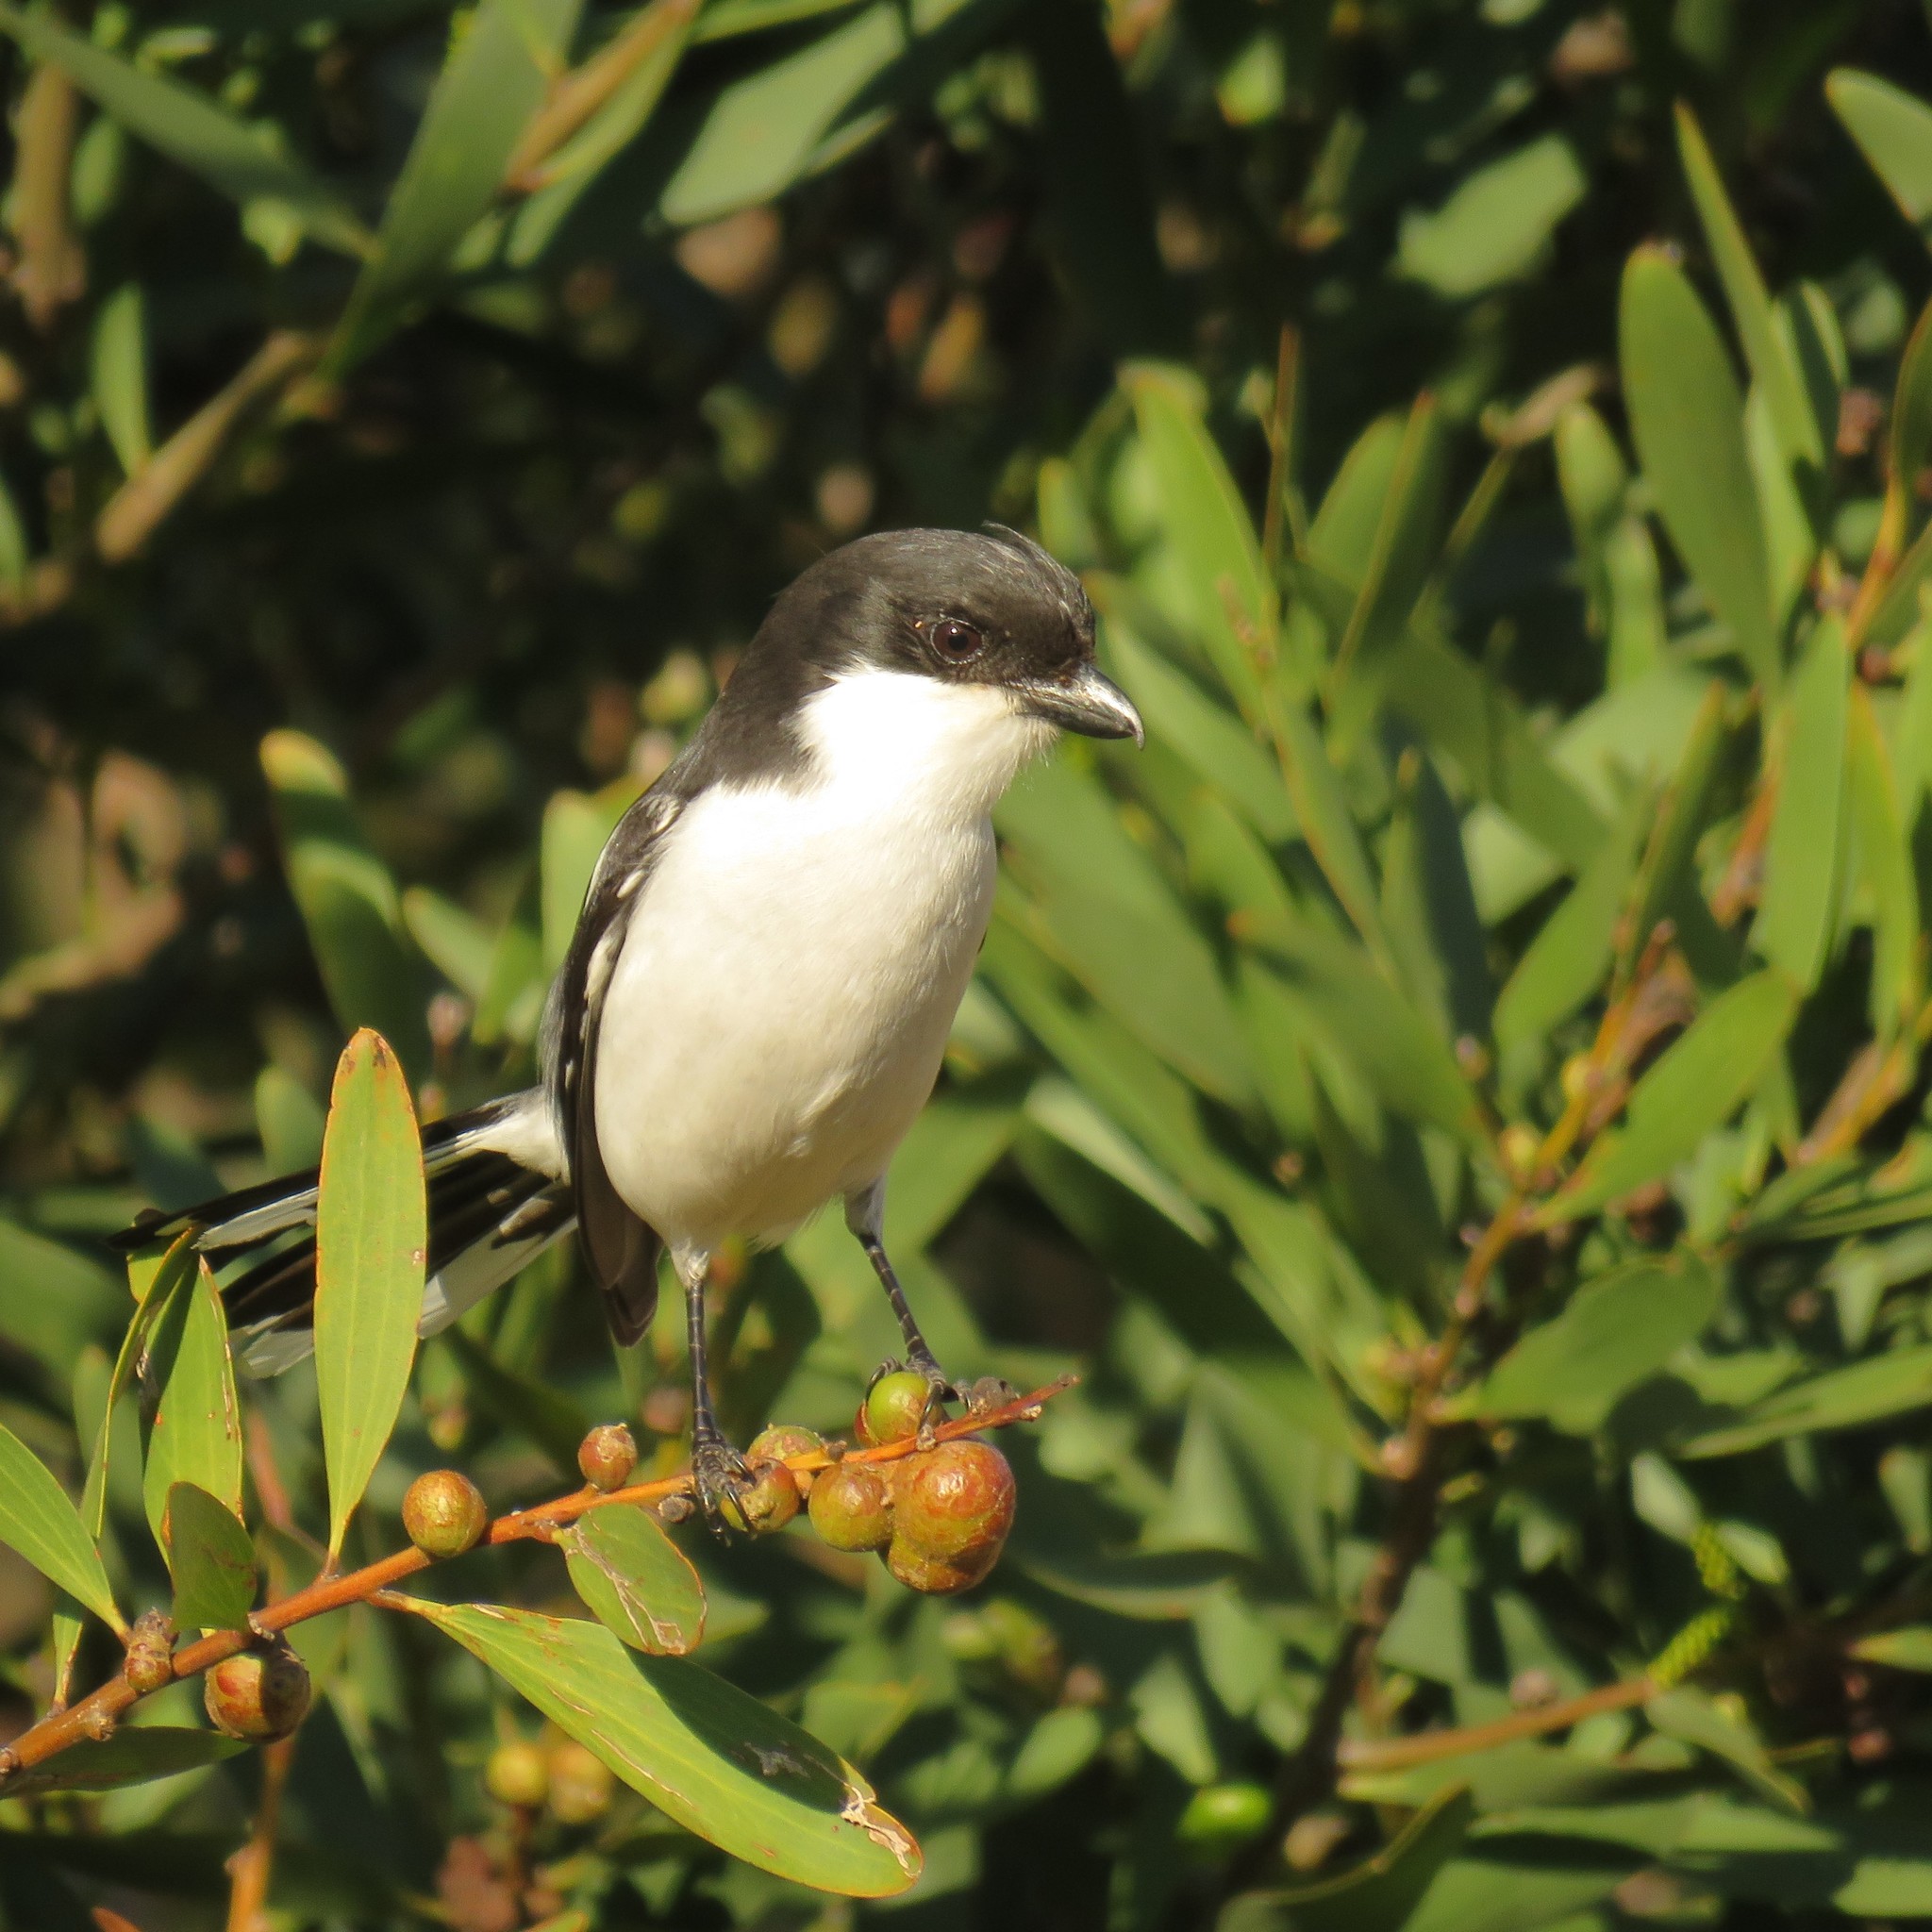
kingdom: Animalia
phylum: Chordata
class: Aves
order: Passeriformes
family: Laniidae
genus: Lanius
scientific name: Lanius collaris
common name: Southern fiscal
